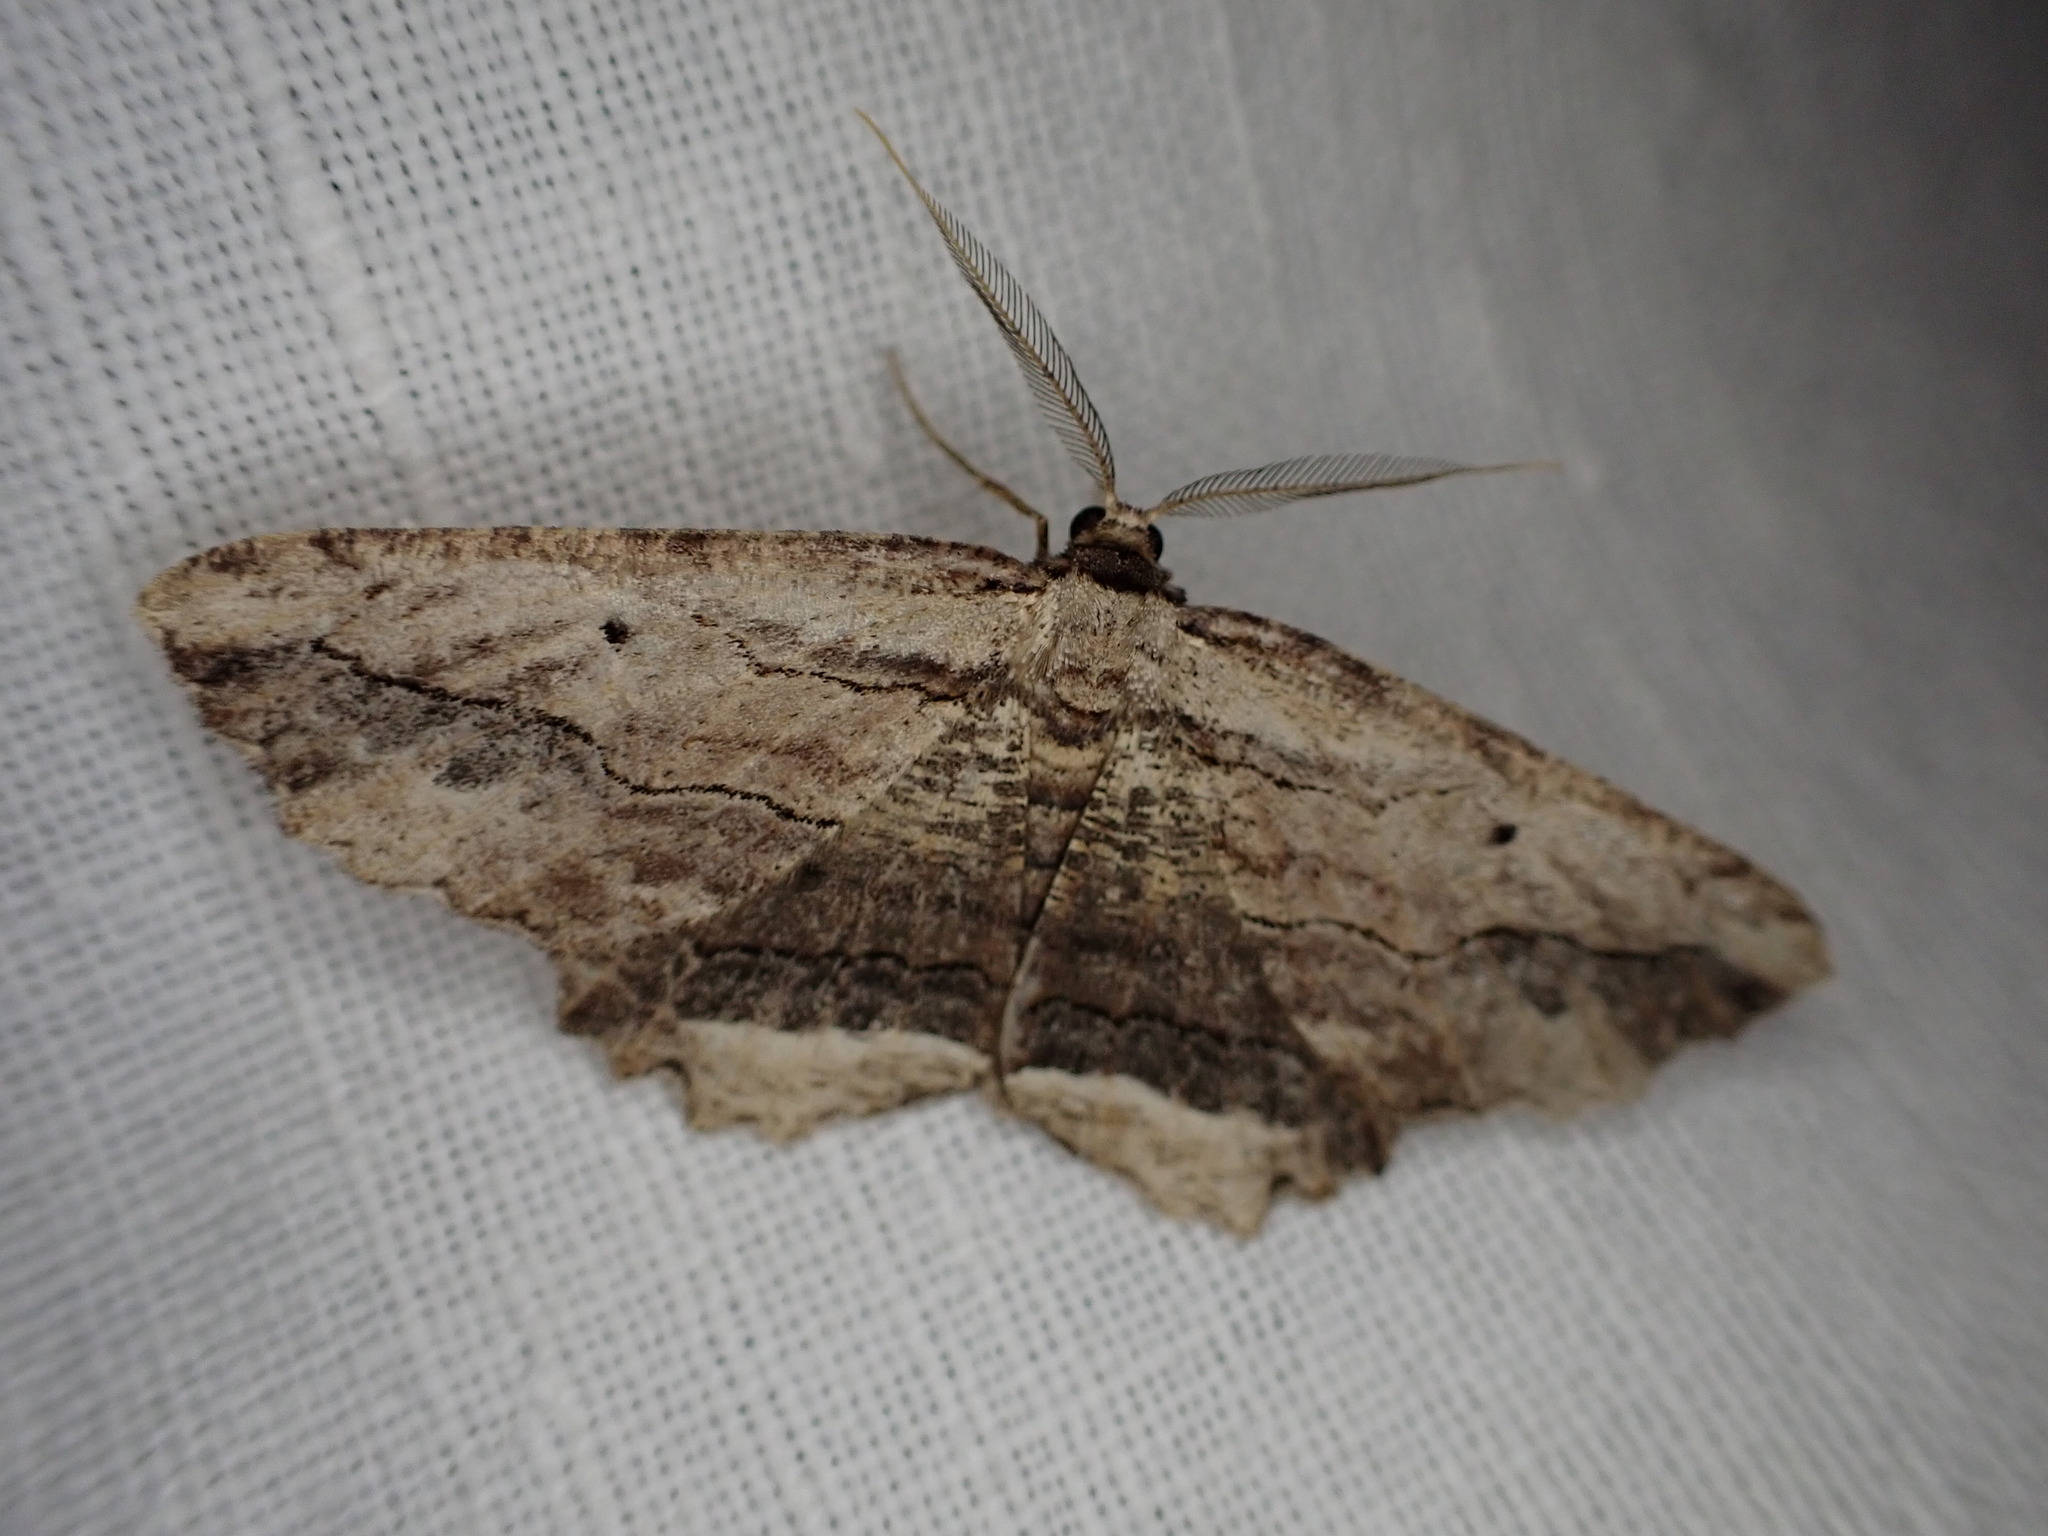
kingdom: Animalia
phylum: Arthropoda
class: Insecta
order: Lepidoptera
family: Geometridae
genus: Menophra
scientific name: Menophra abruptaria
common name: Waved umber
